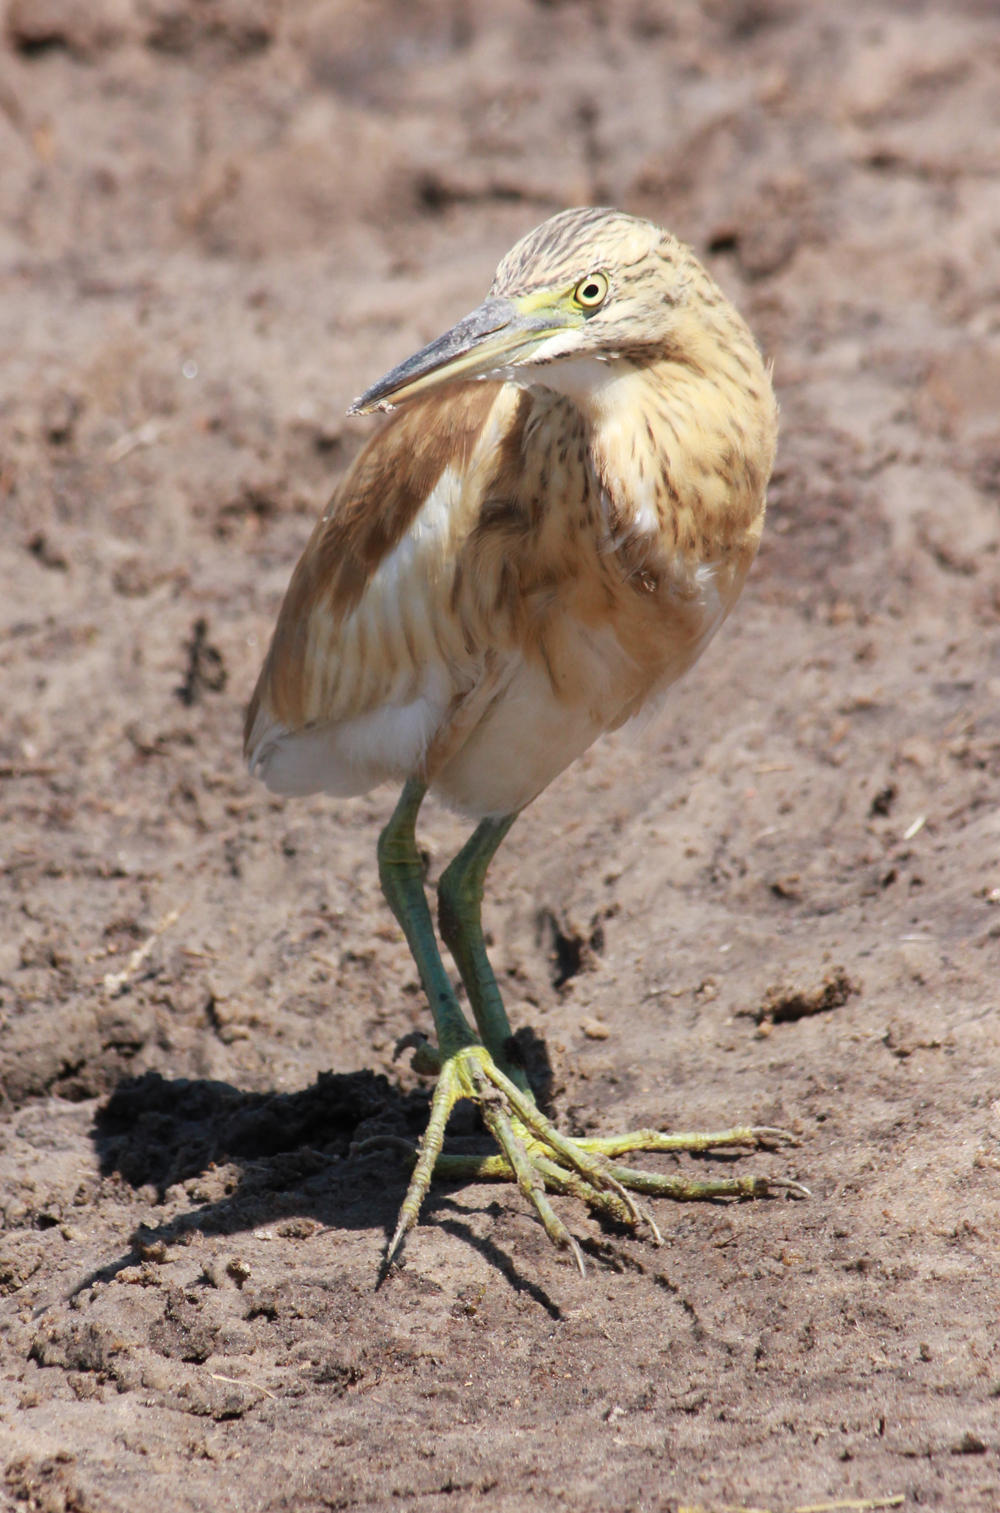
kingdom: Animalia
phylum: Chordata
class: Aves
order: Pelecaniformes
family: Ardeidae
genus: Ardeola
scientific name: Ardeola ralloides
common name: Squacco heron
